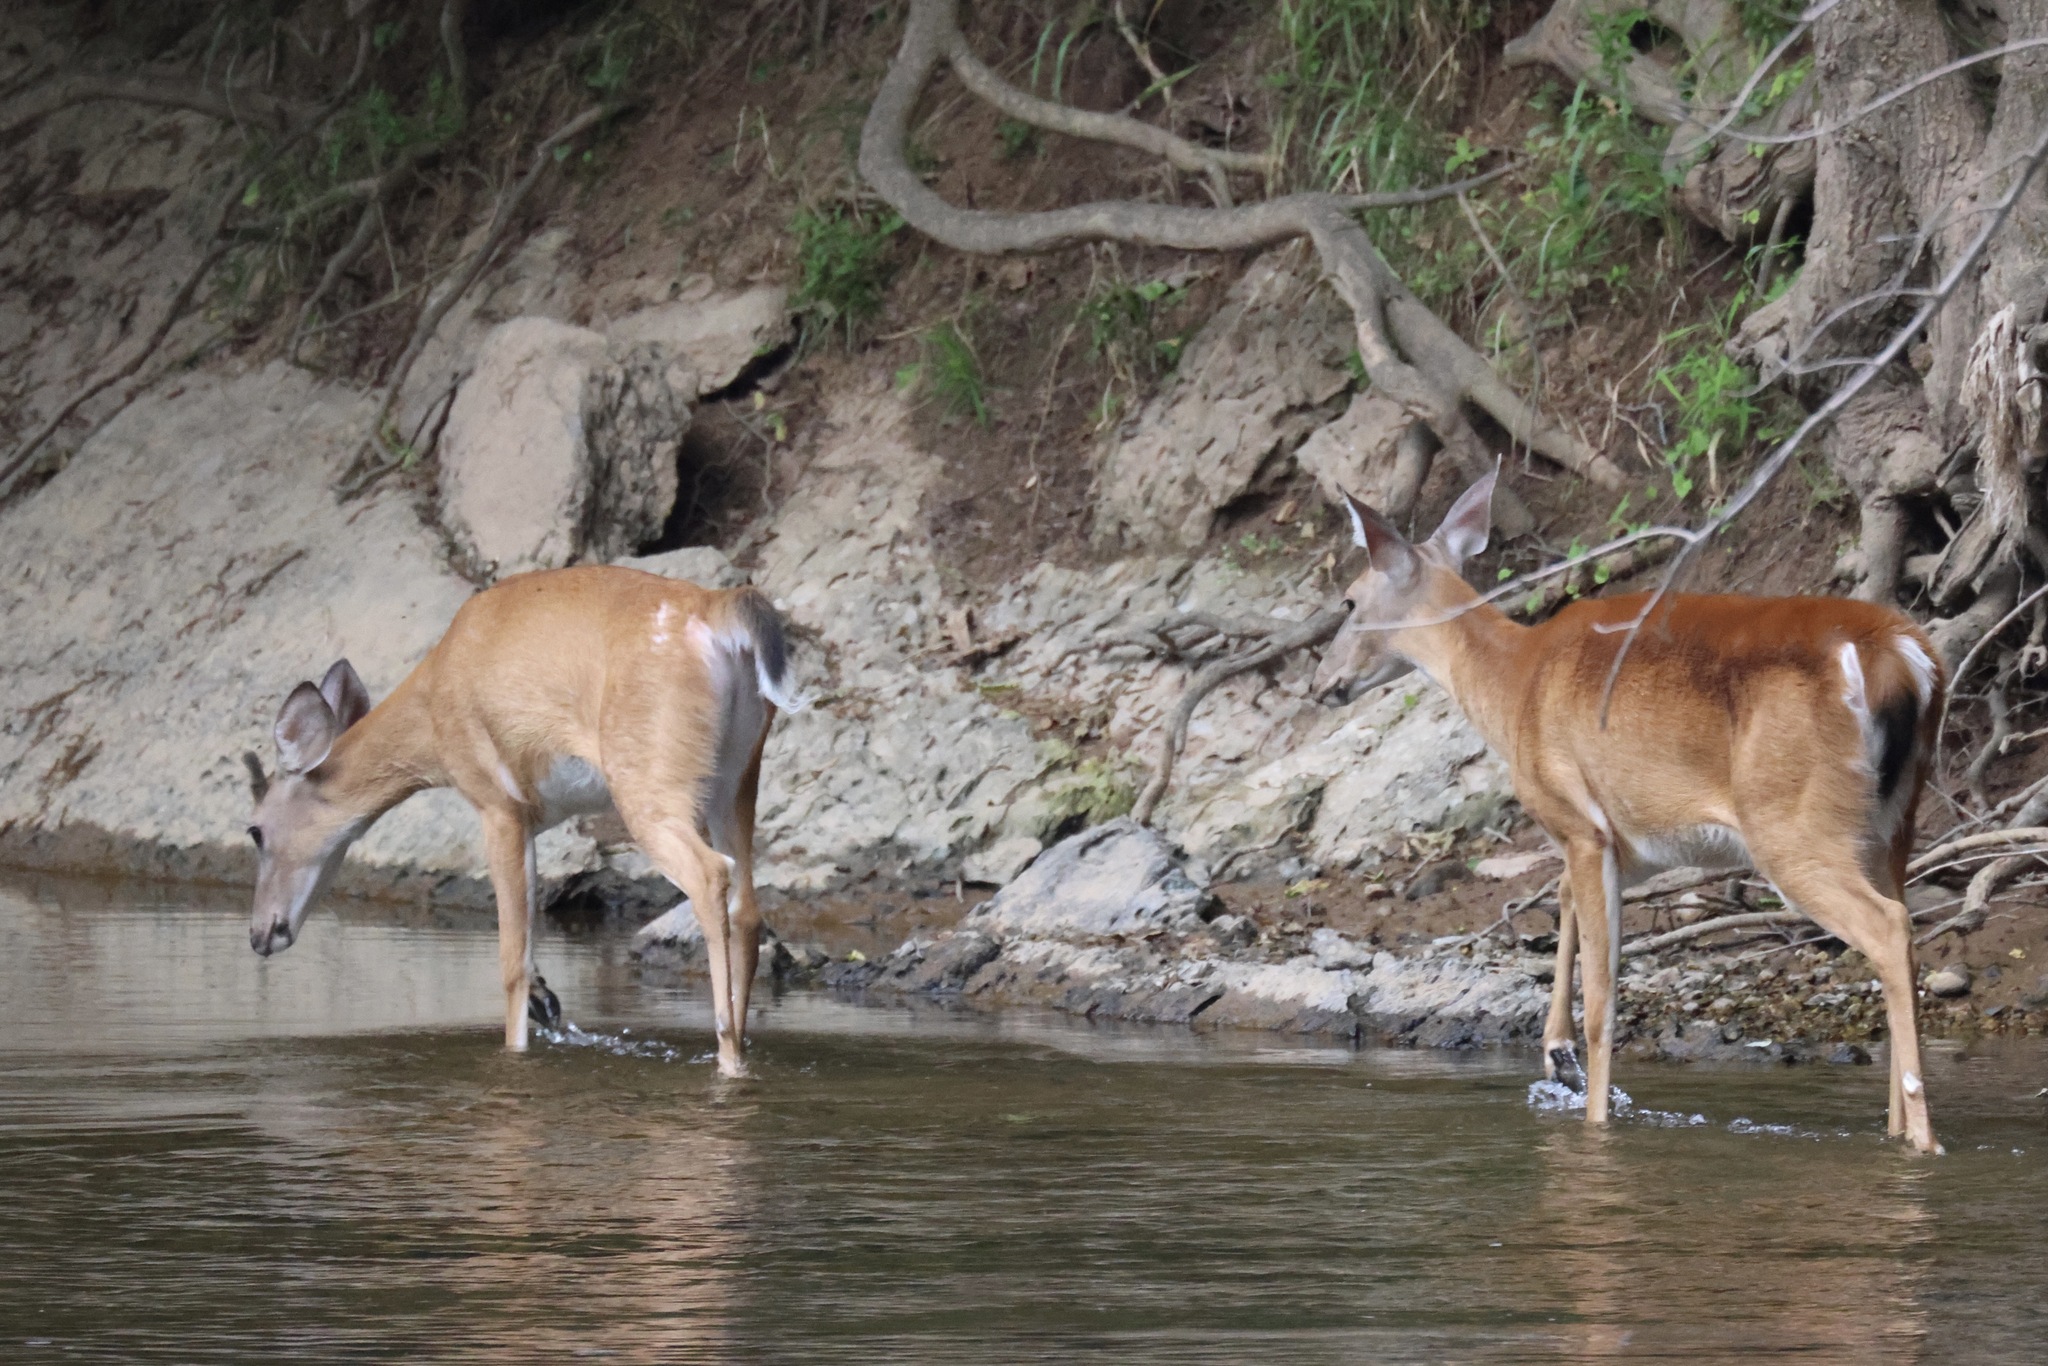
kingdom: Animalia
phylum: Chordata
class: Mammalia
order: Artiodactyla
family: Cervidae
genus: Odocoileus
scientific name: Odocoileus virginianus
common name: White-tailed deer
